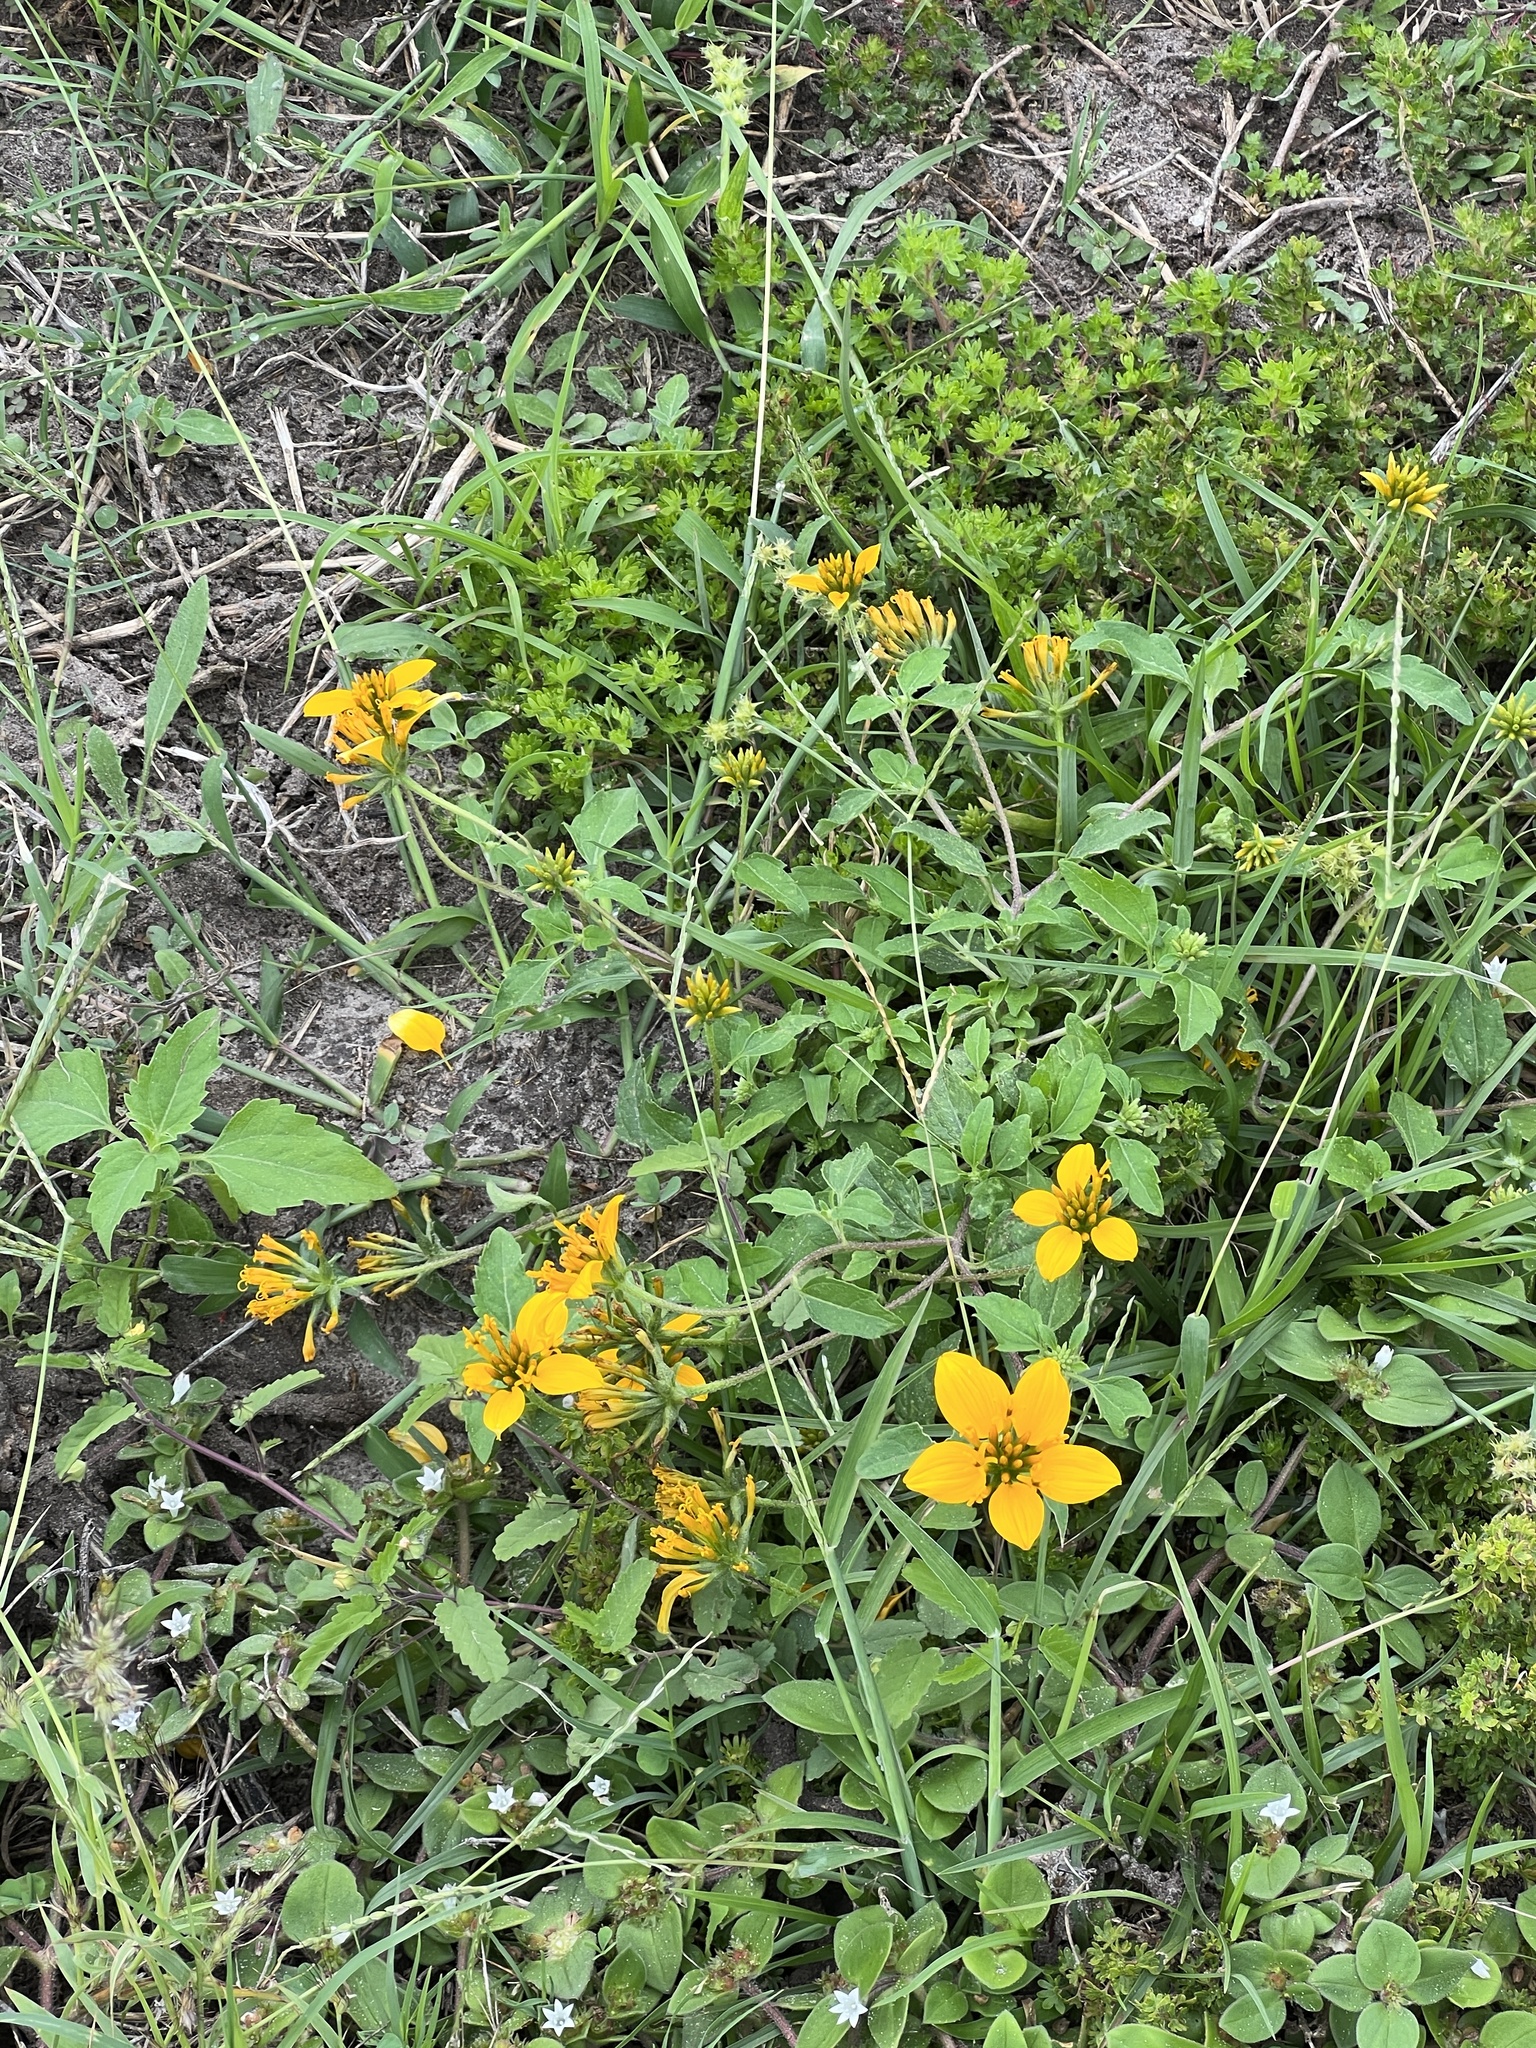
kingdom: Plantae
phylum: Tracheophyta
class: Magnoliopsida
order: Asterales
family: Asteraceae
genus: Sclerocarpus
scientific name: Sclerocarpus uniserialis
